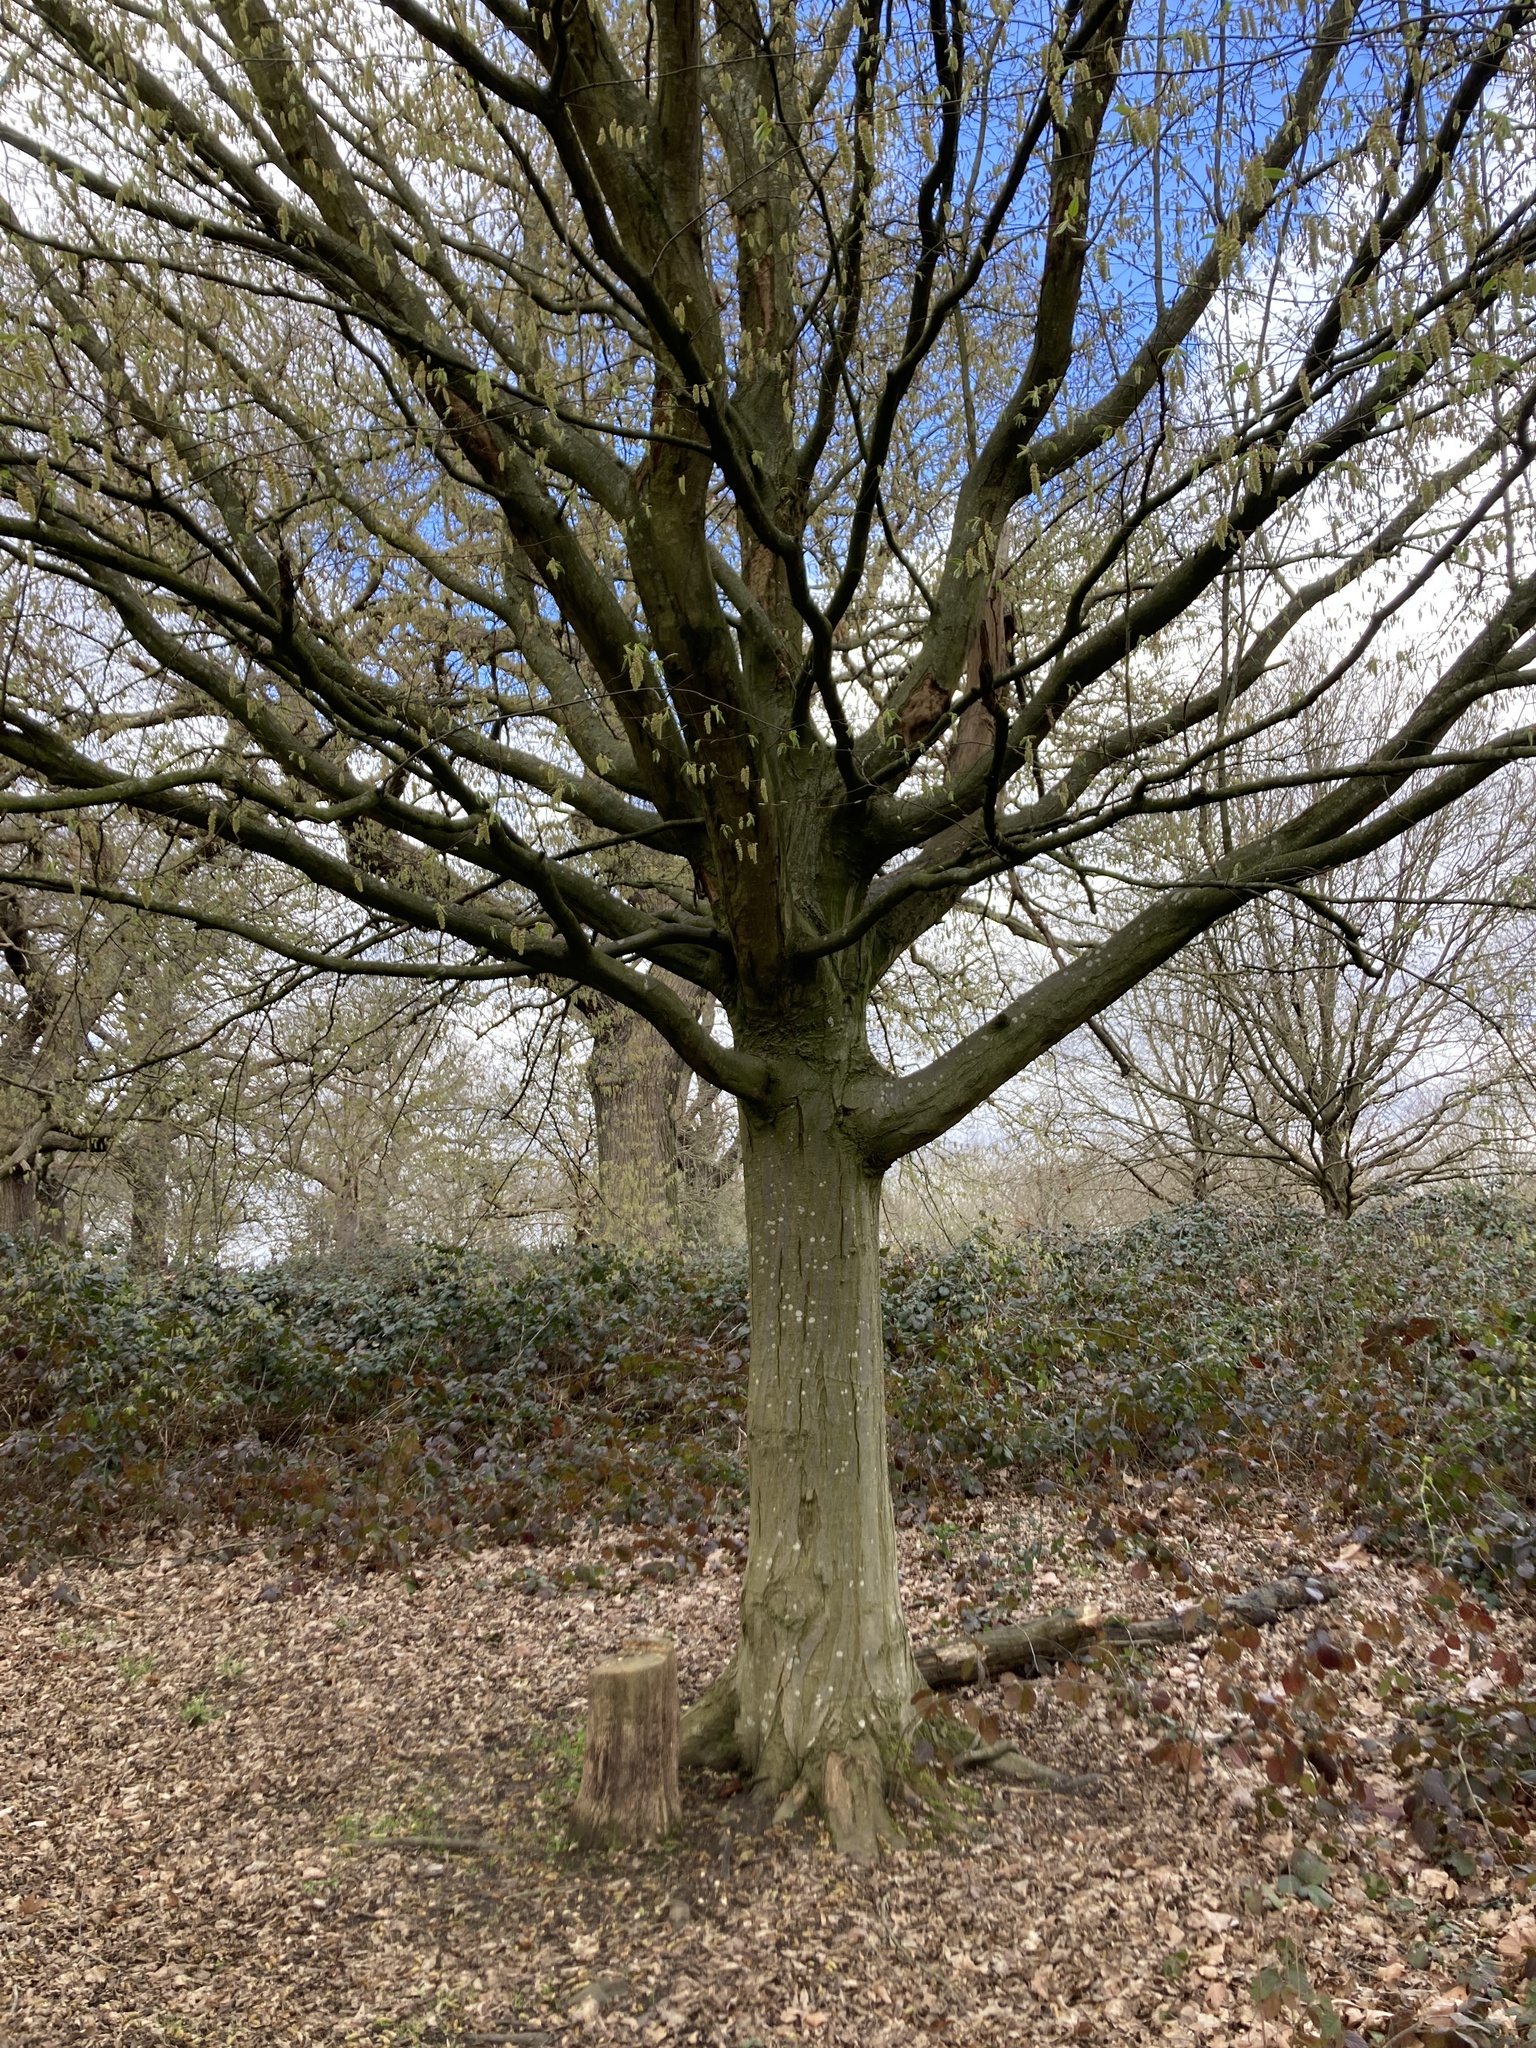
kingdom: Plantae
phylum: Tracheophyta
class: Magnoliopsida
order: Fagales
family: Betulaceae
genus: Carpinus
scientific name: Carpinus betulus
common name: Hornbeam
